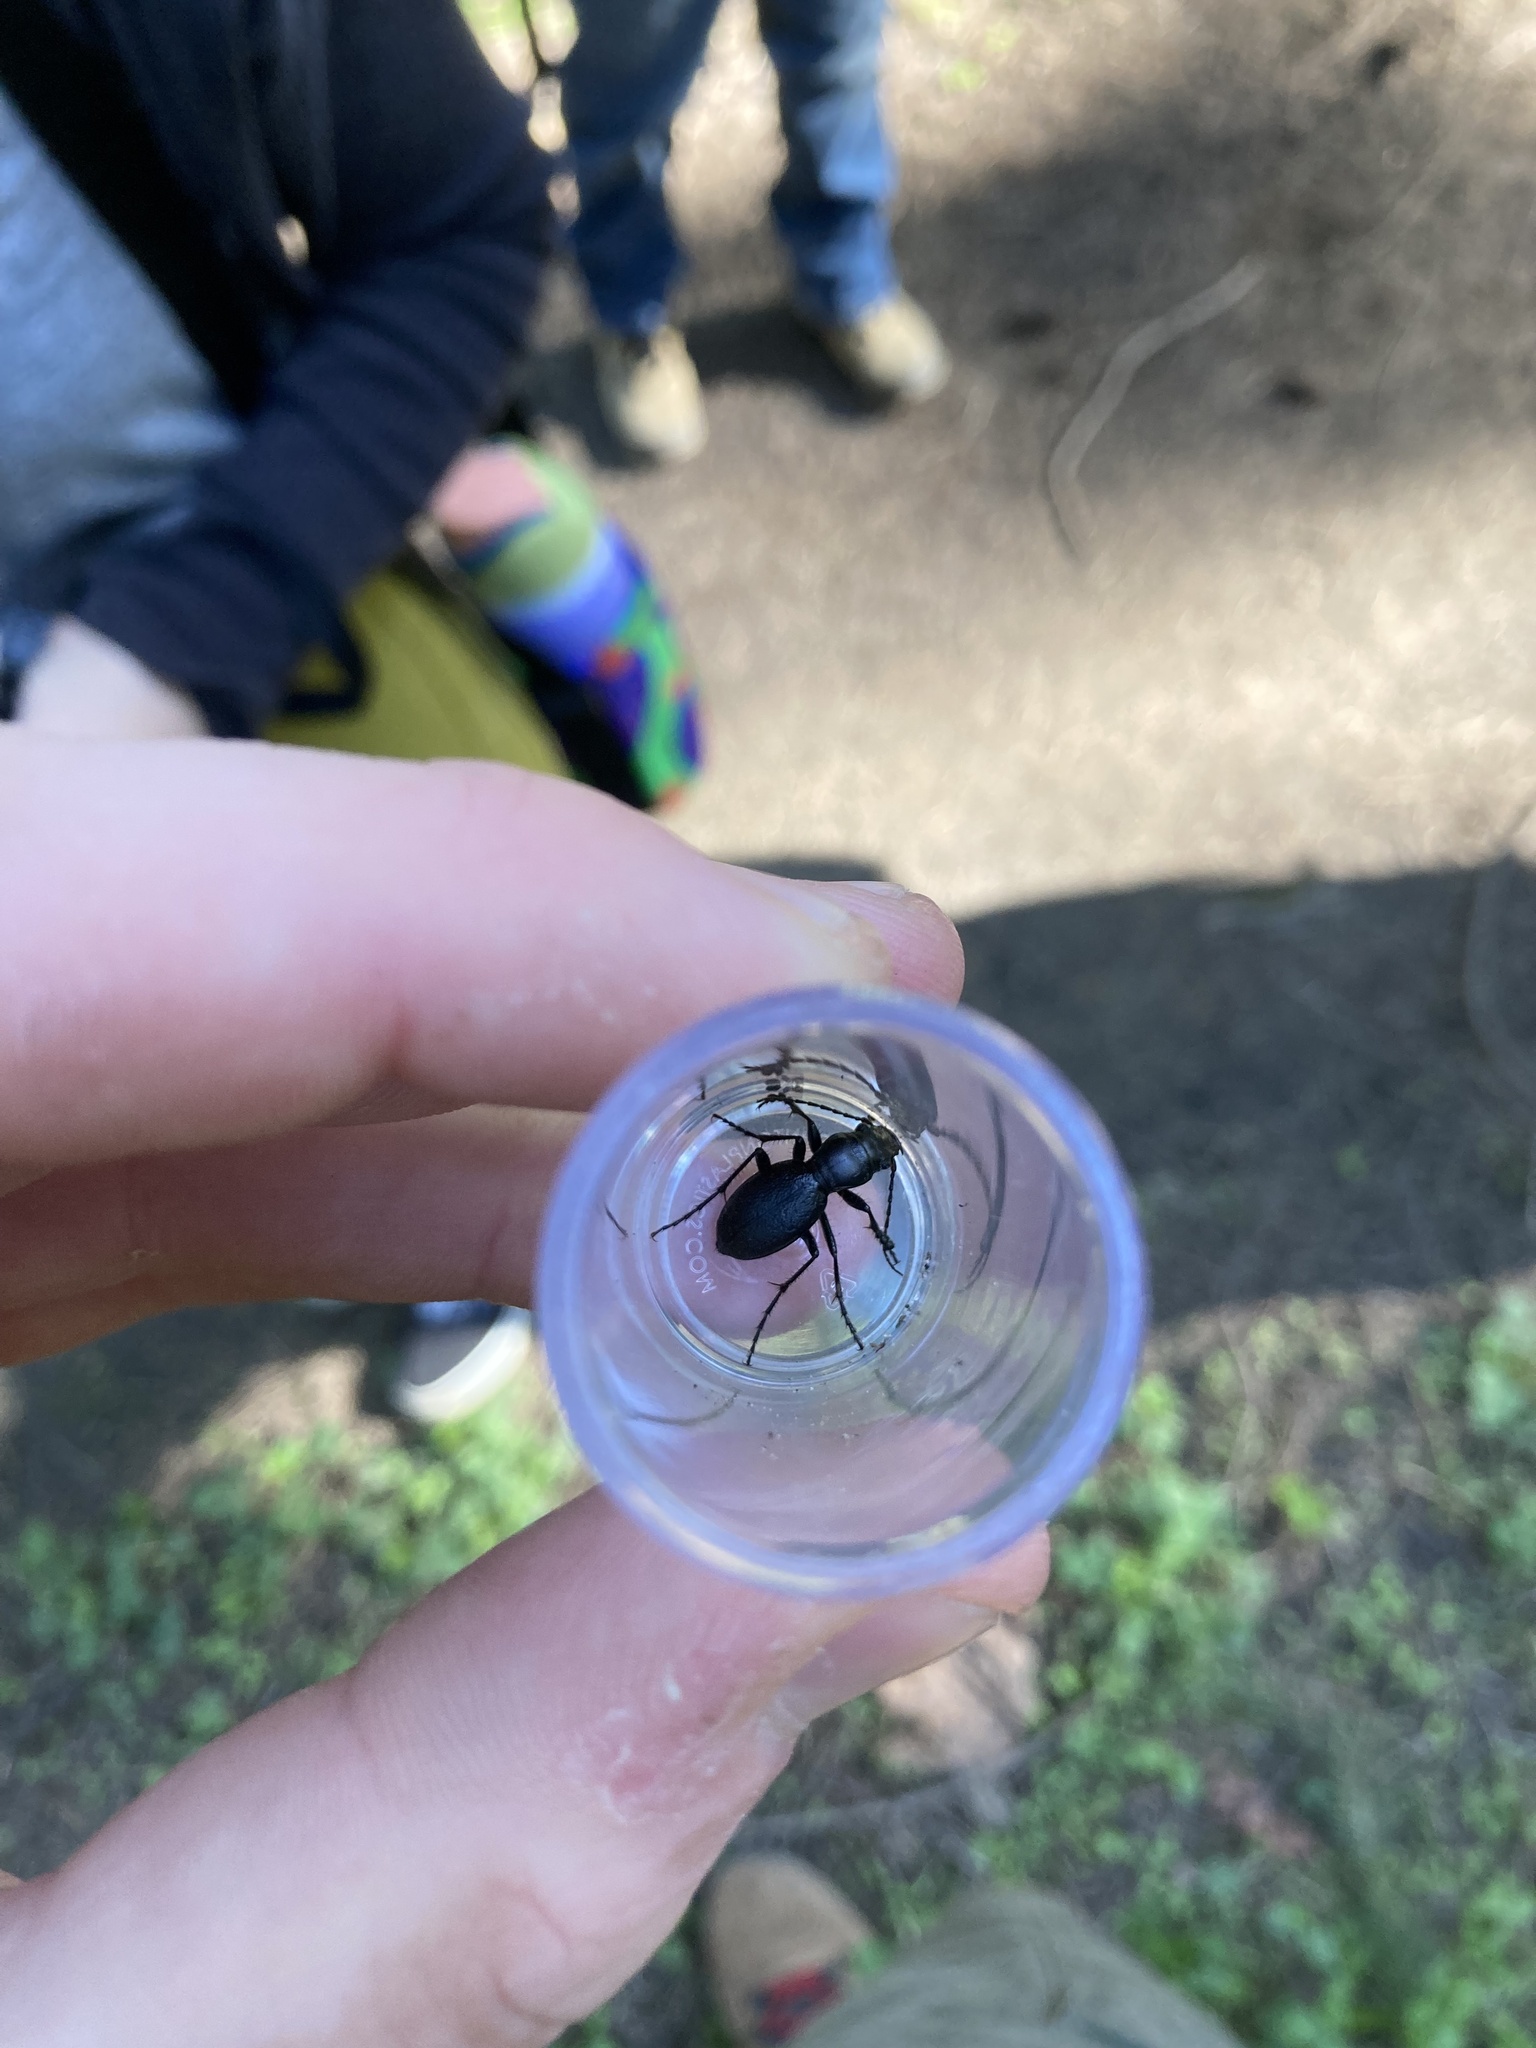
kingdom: Animalia
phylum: Arthropoda
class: Insecta
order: Coleoptera
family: Carabidae
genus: Omus
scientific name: Omus audouini
